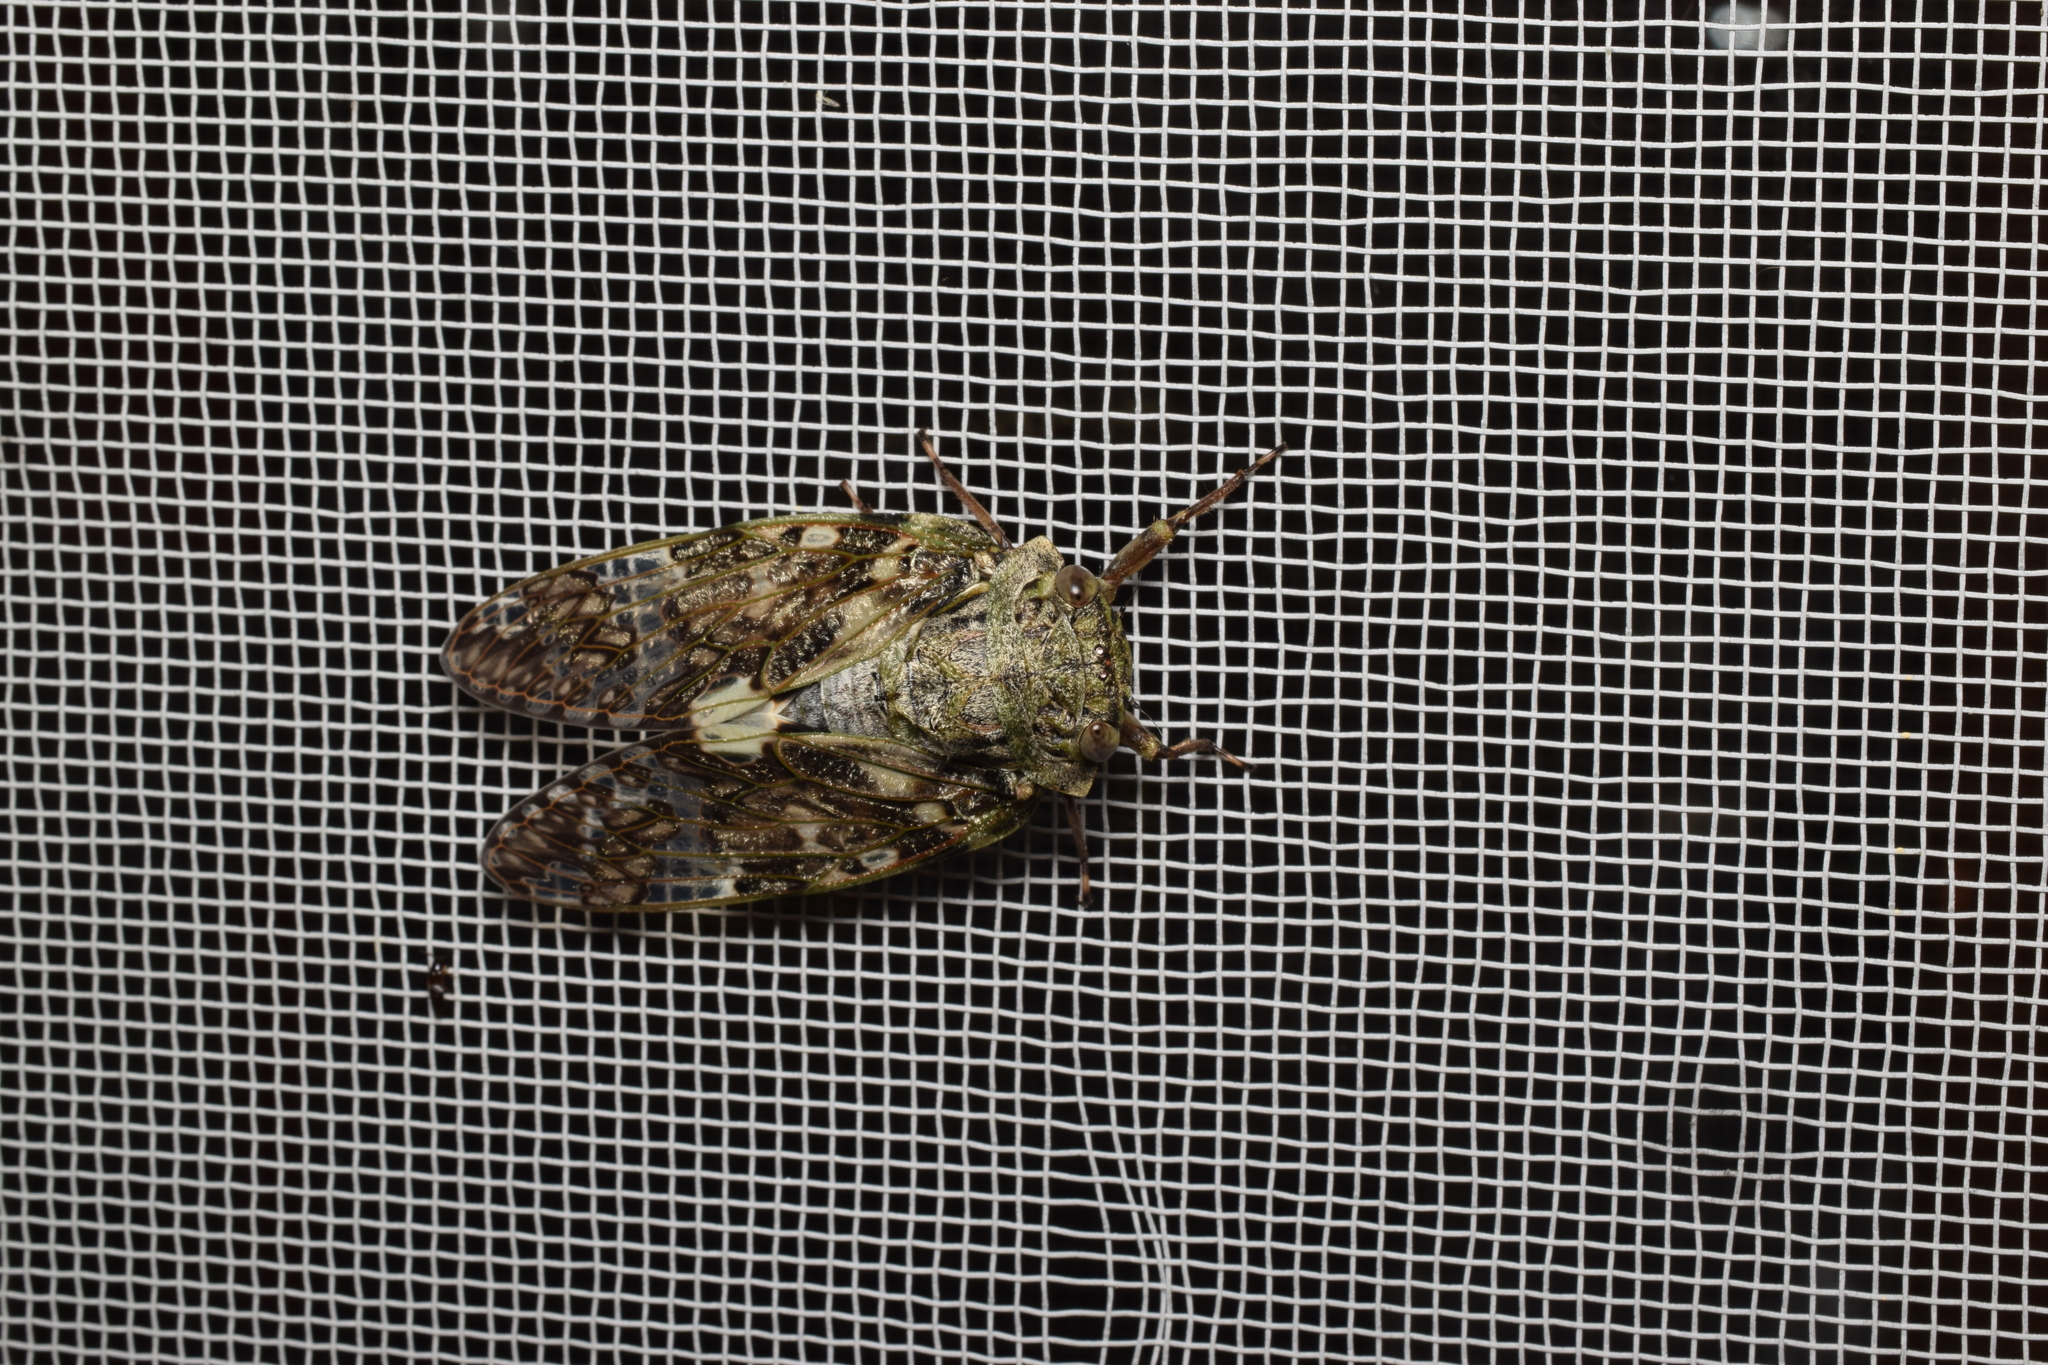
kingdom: Animalia
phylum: Arthropoda
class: Insecta
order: Hemiptera
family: Cicadidae
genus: Platypleura
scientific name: Platypleura kaempferi
